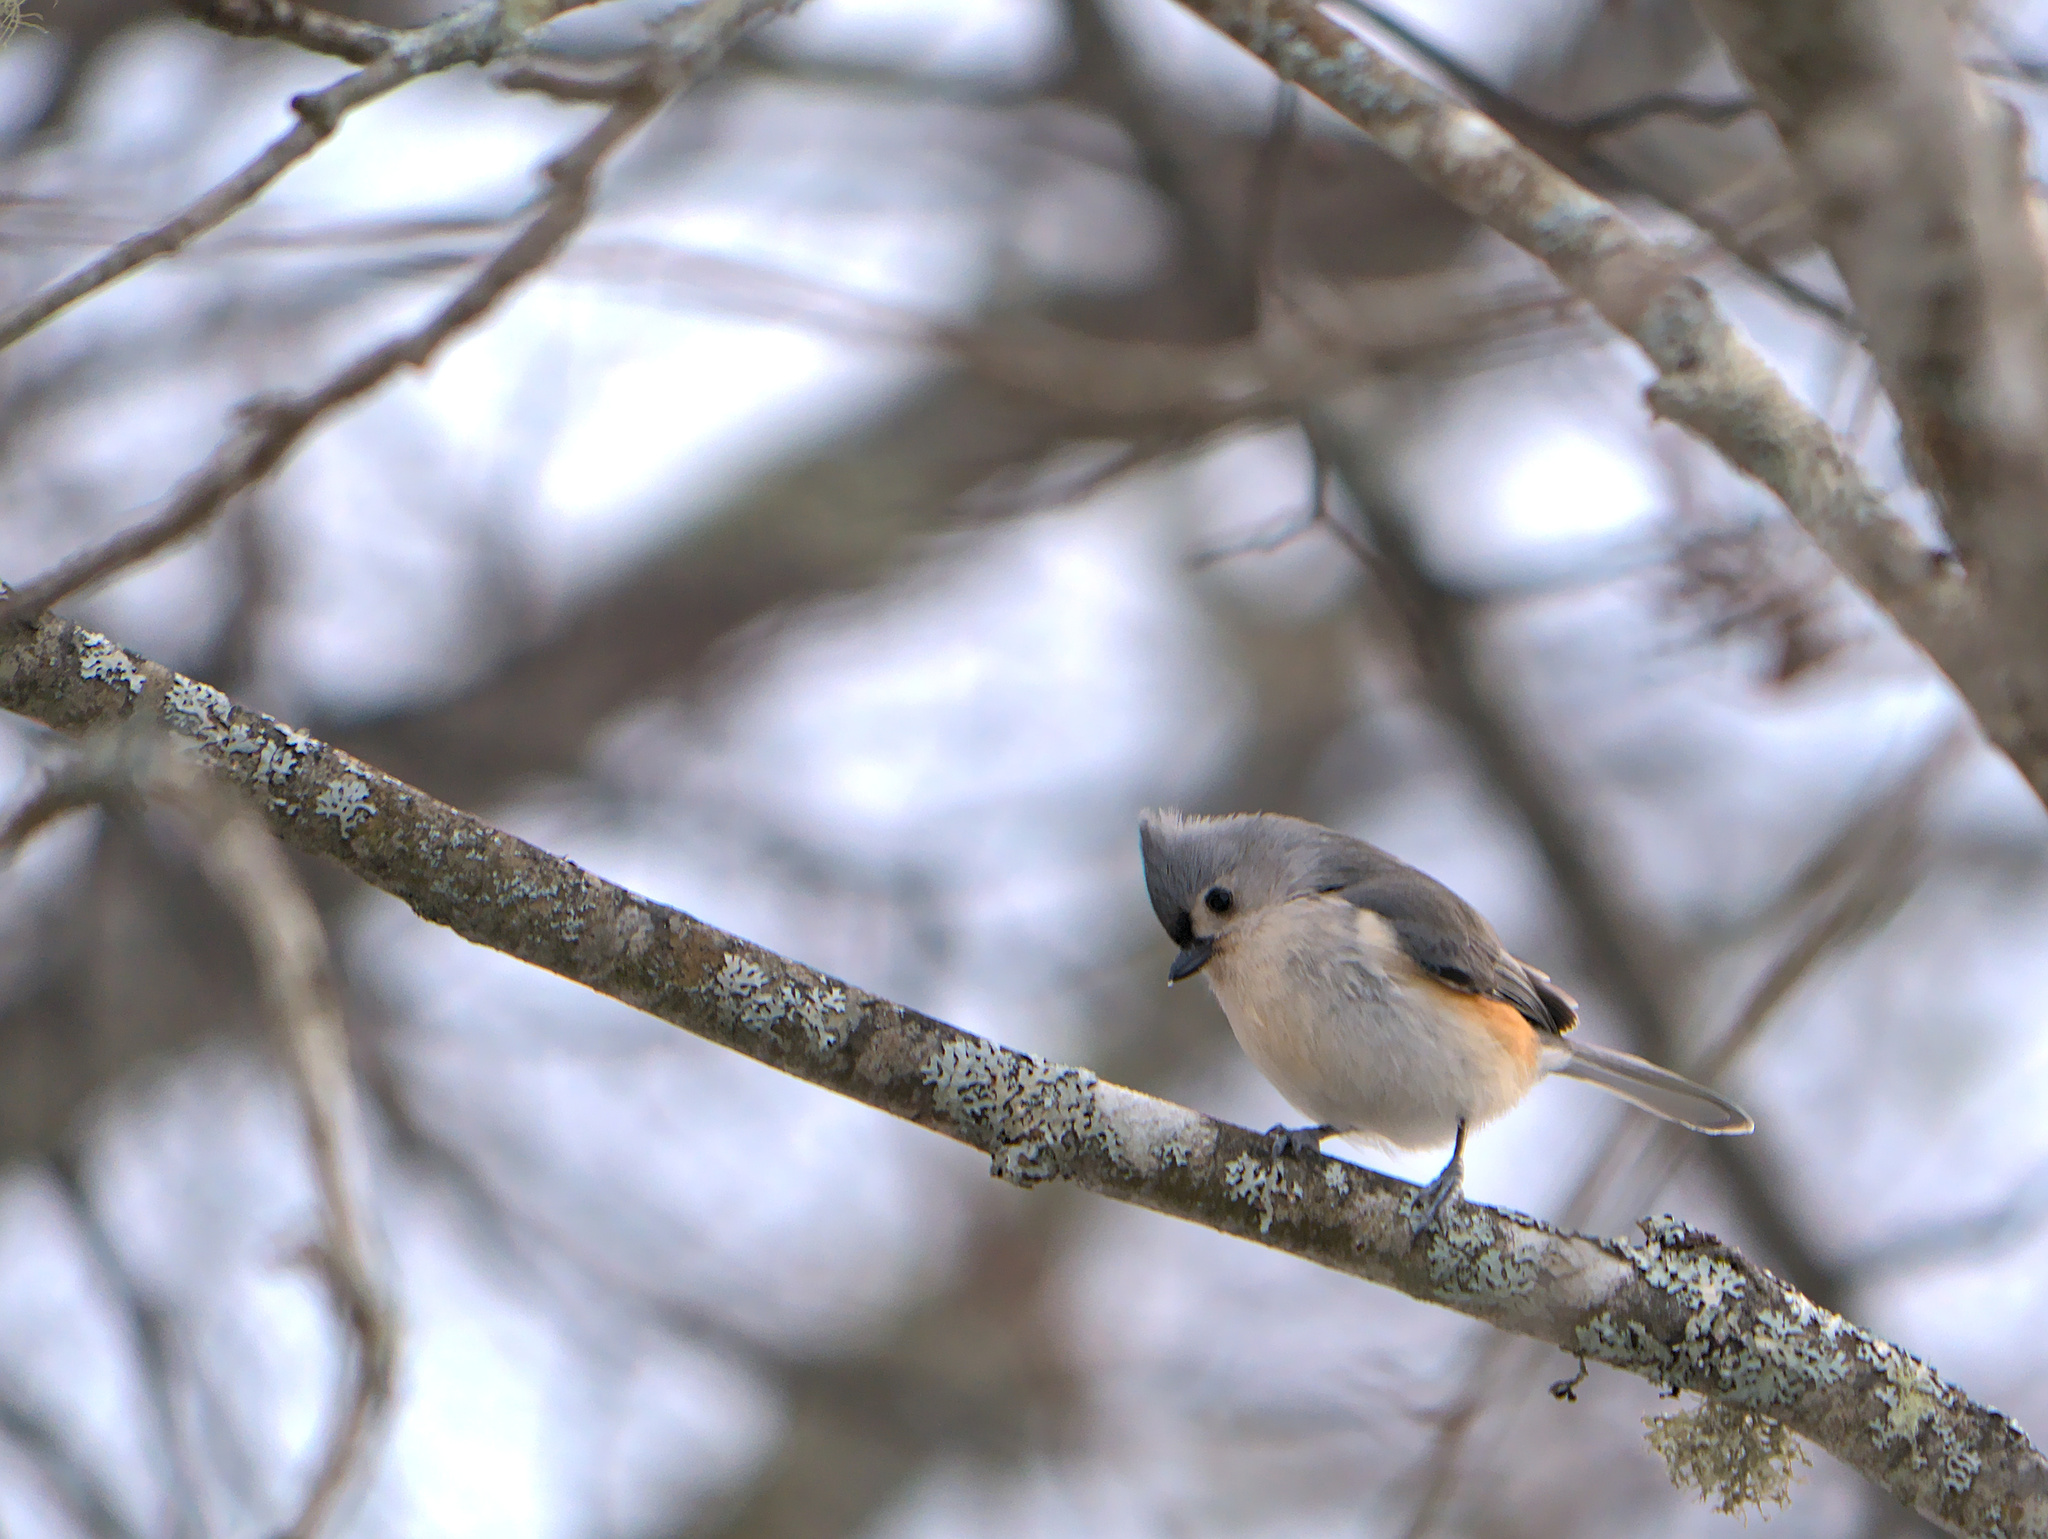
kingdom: Animalia
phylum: Chordata
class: Aves
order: Passeriformes
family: Paridae
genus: Baeolophus
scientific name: Baeolophus bicolor
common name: Tufted titmouse
